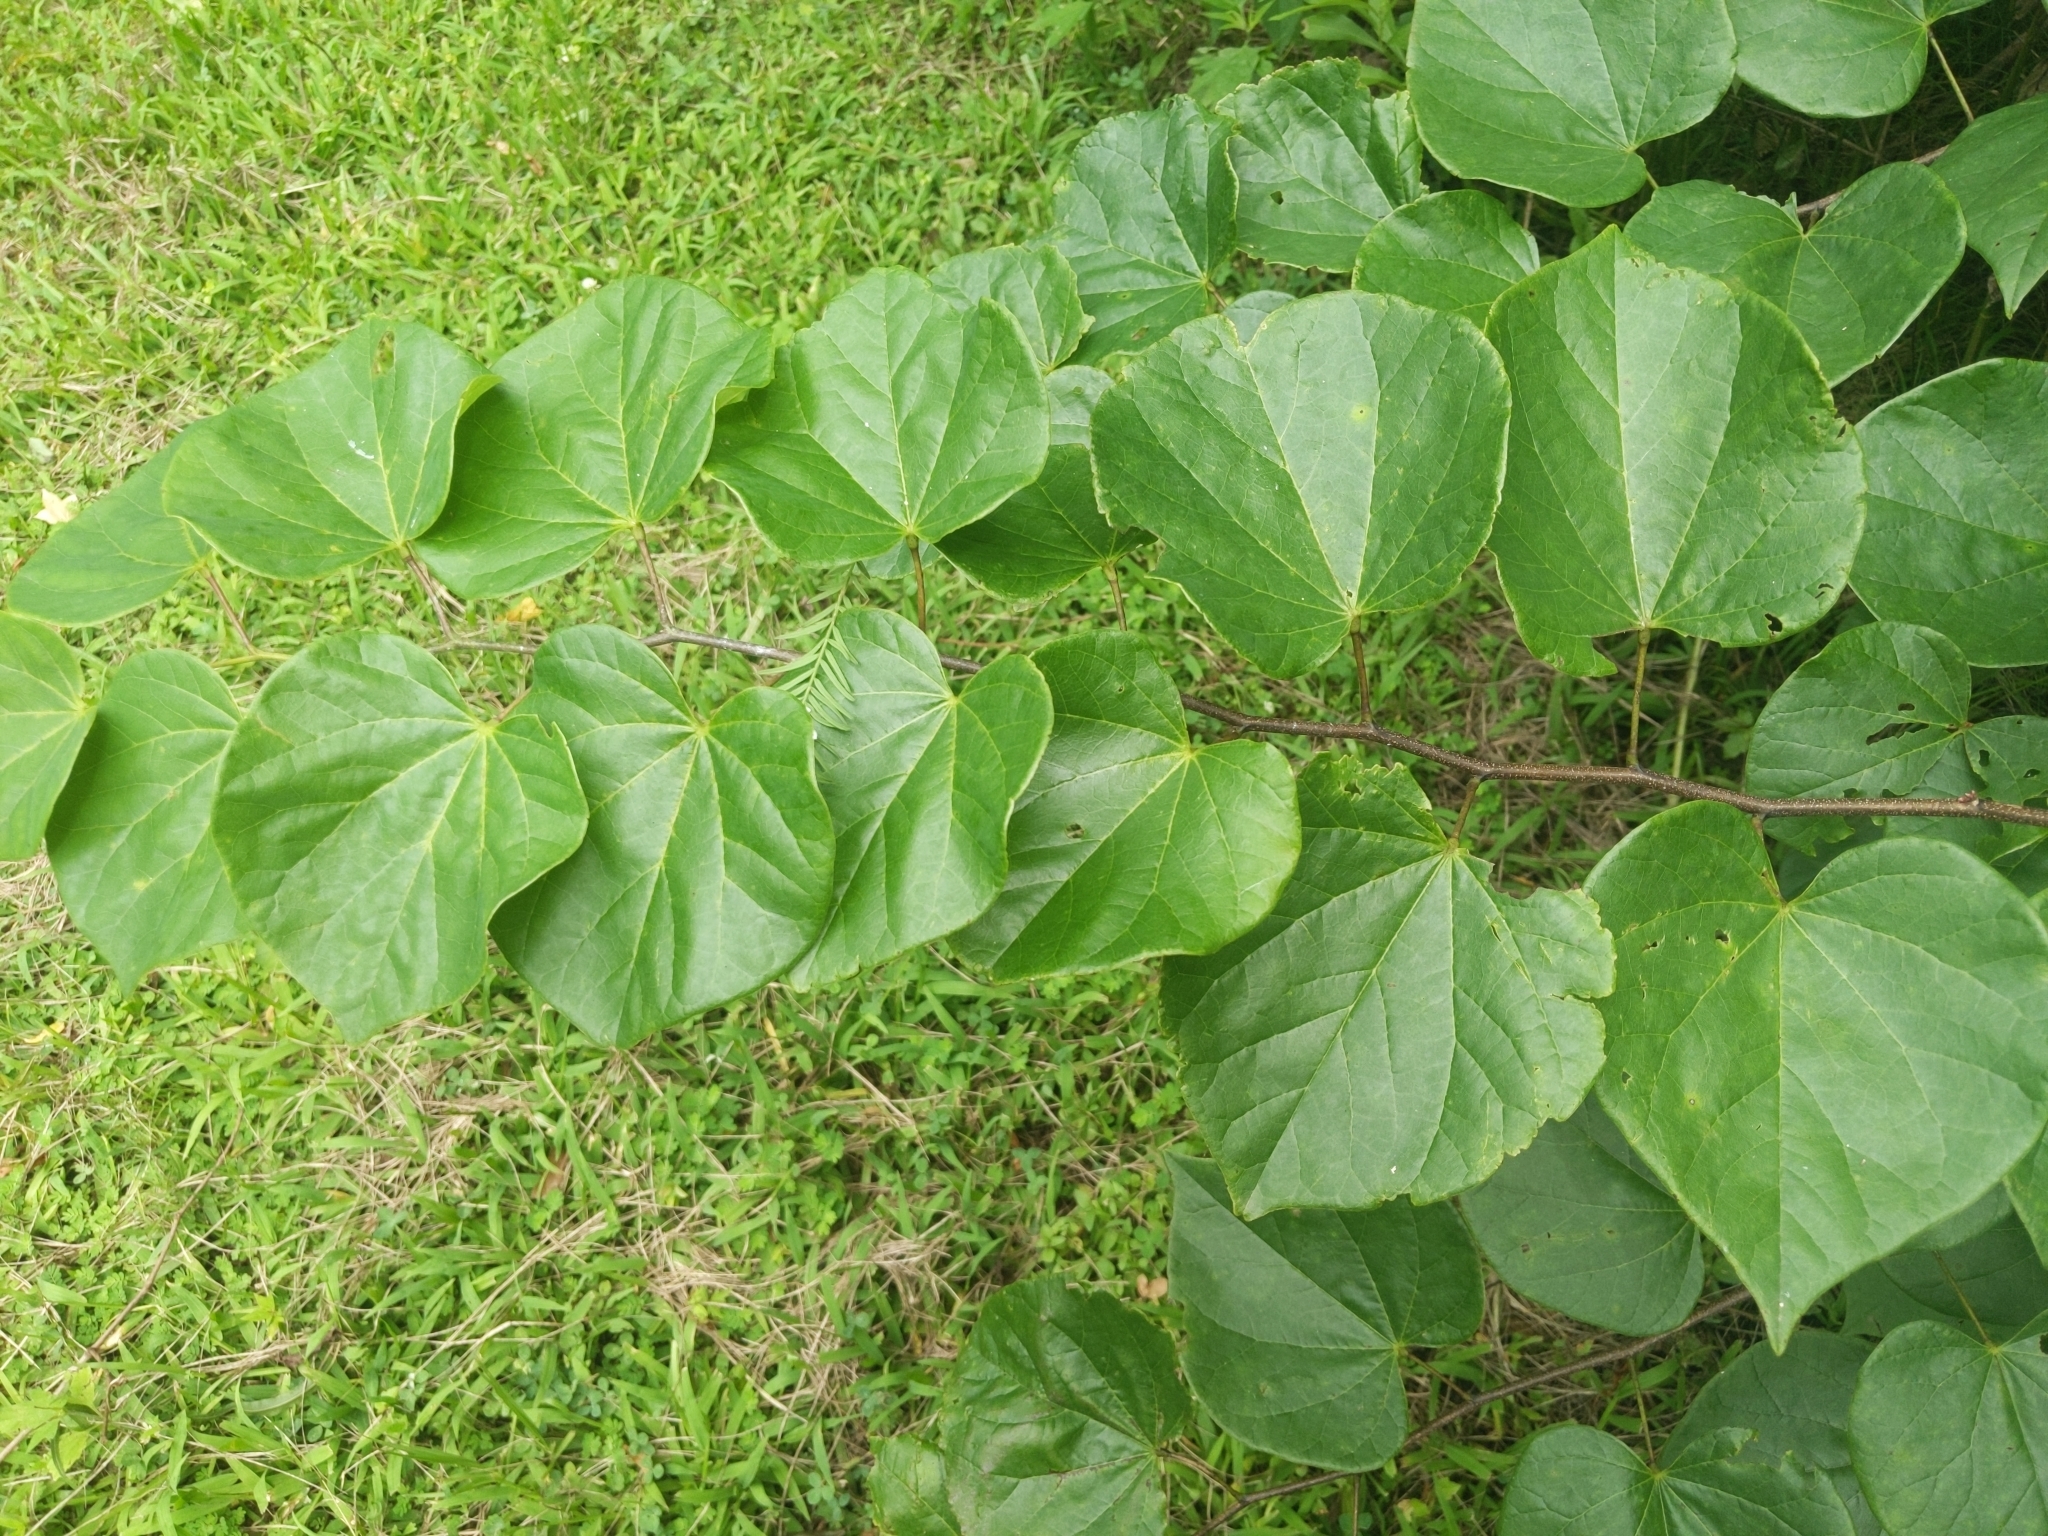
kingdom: Plantae
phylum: Tracheophyta
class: Magnoliopsida
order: Fabales
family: Fabaceae
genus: Cercis
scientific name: Cercis canadensis
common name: Eastern redbud
